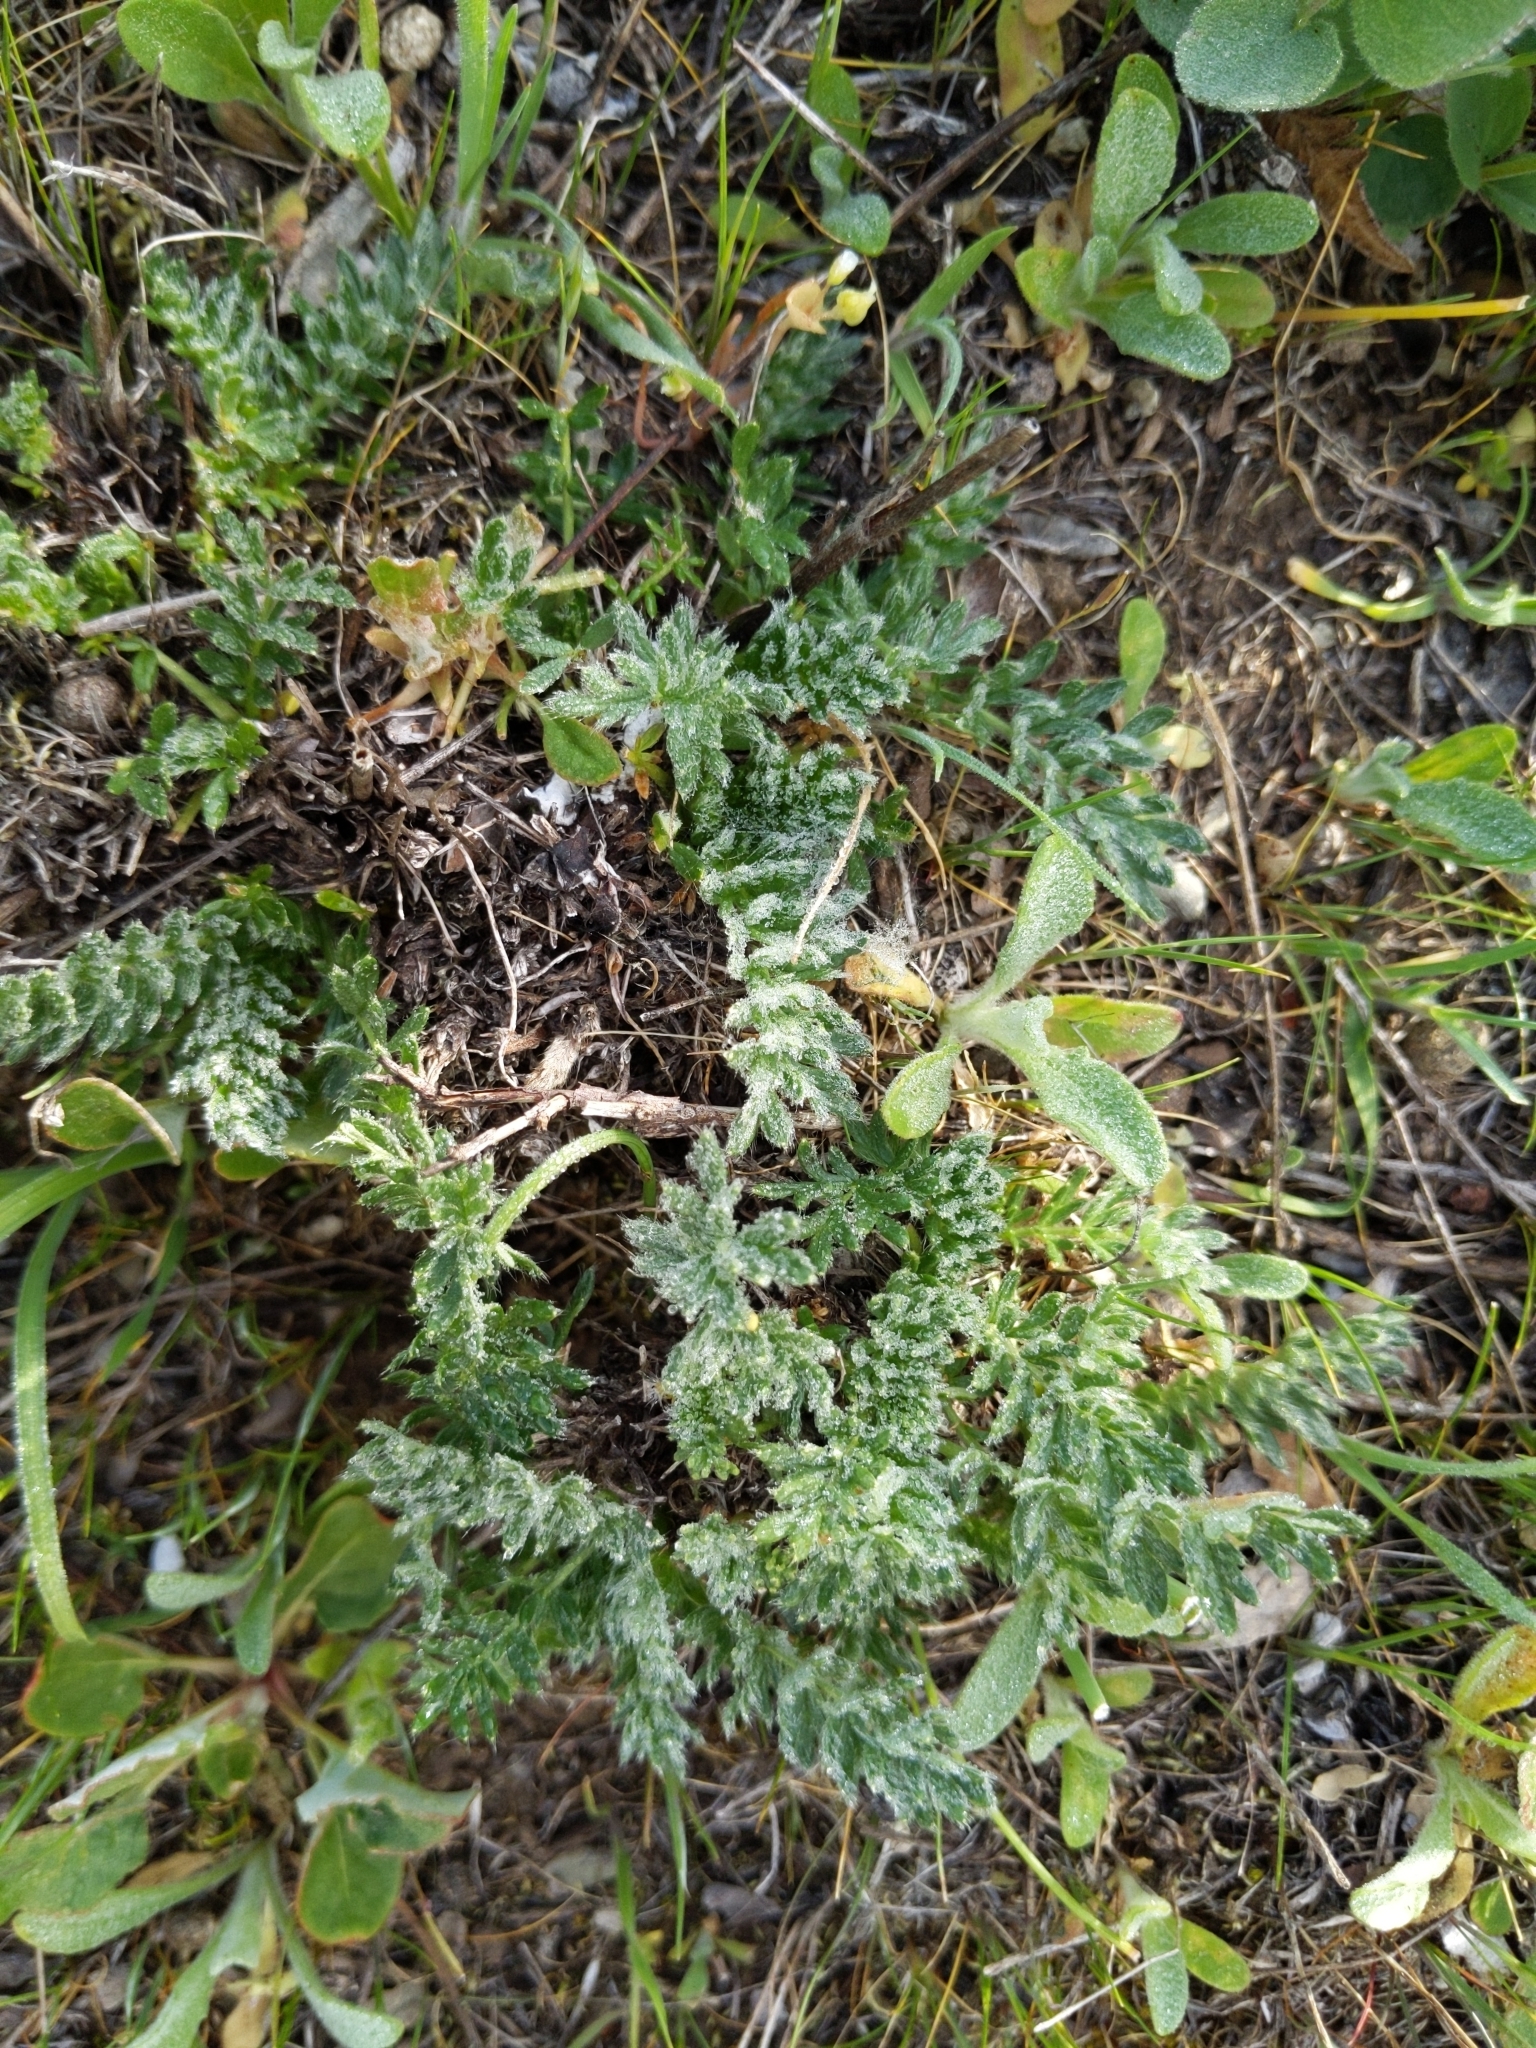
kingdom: Plantae
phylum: Tracheophyta
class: Magnoliopsida
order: Rosales
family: Rosaceae
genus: Acaena
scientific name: Acaena pinnatifida
